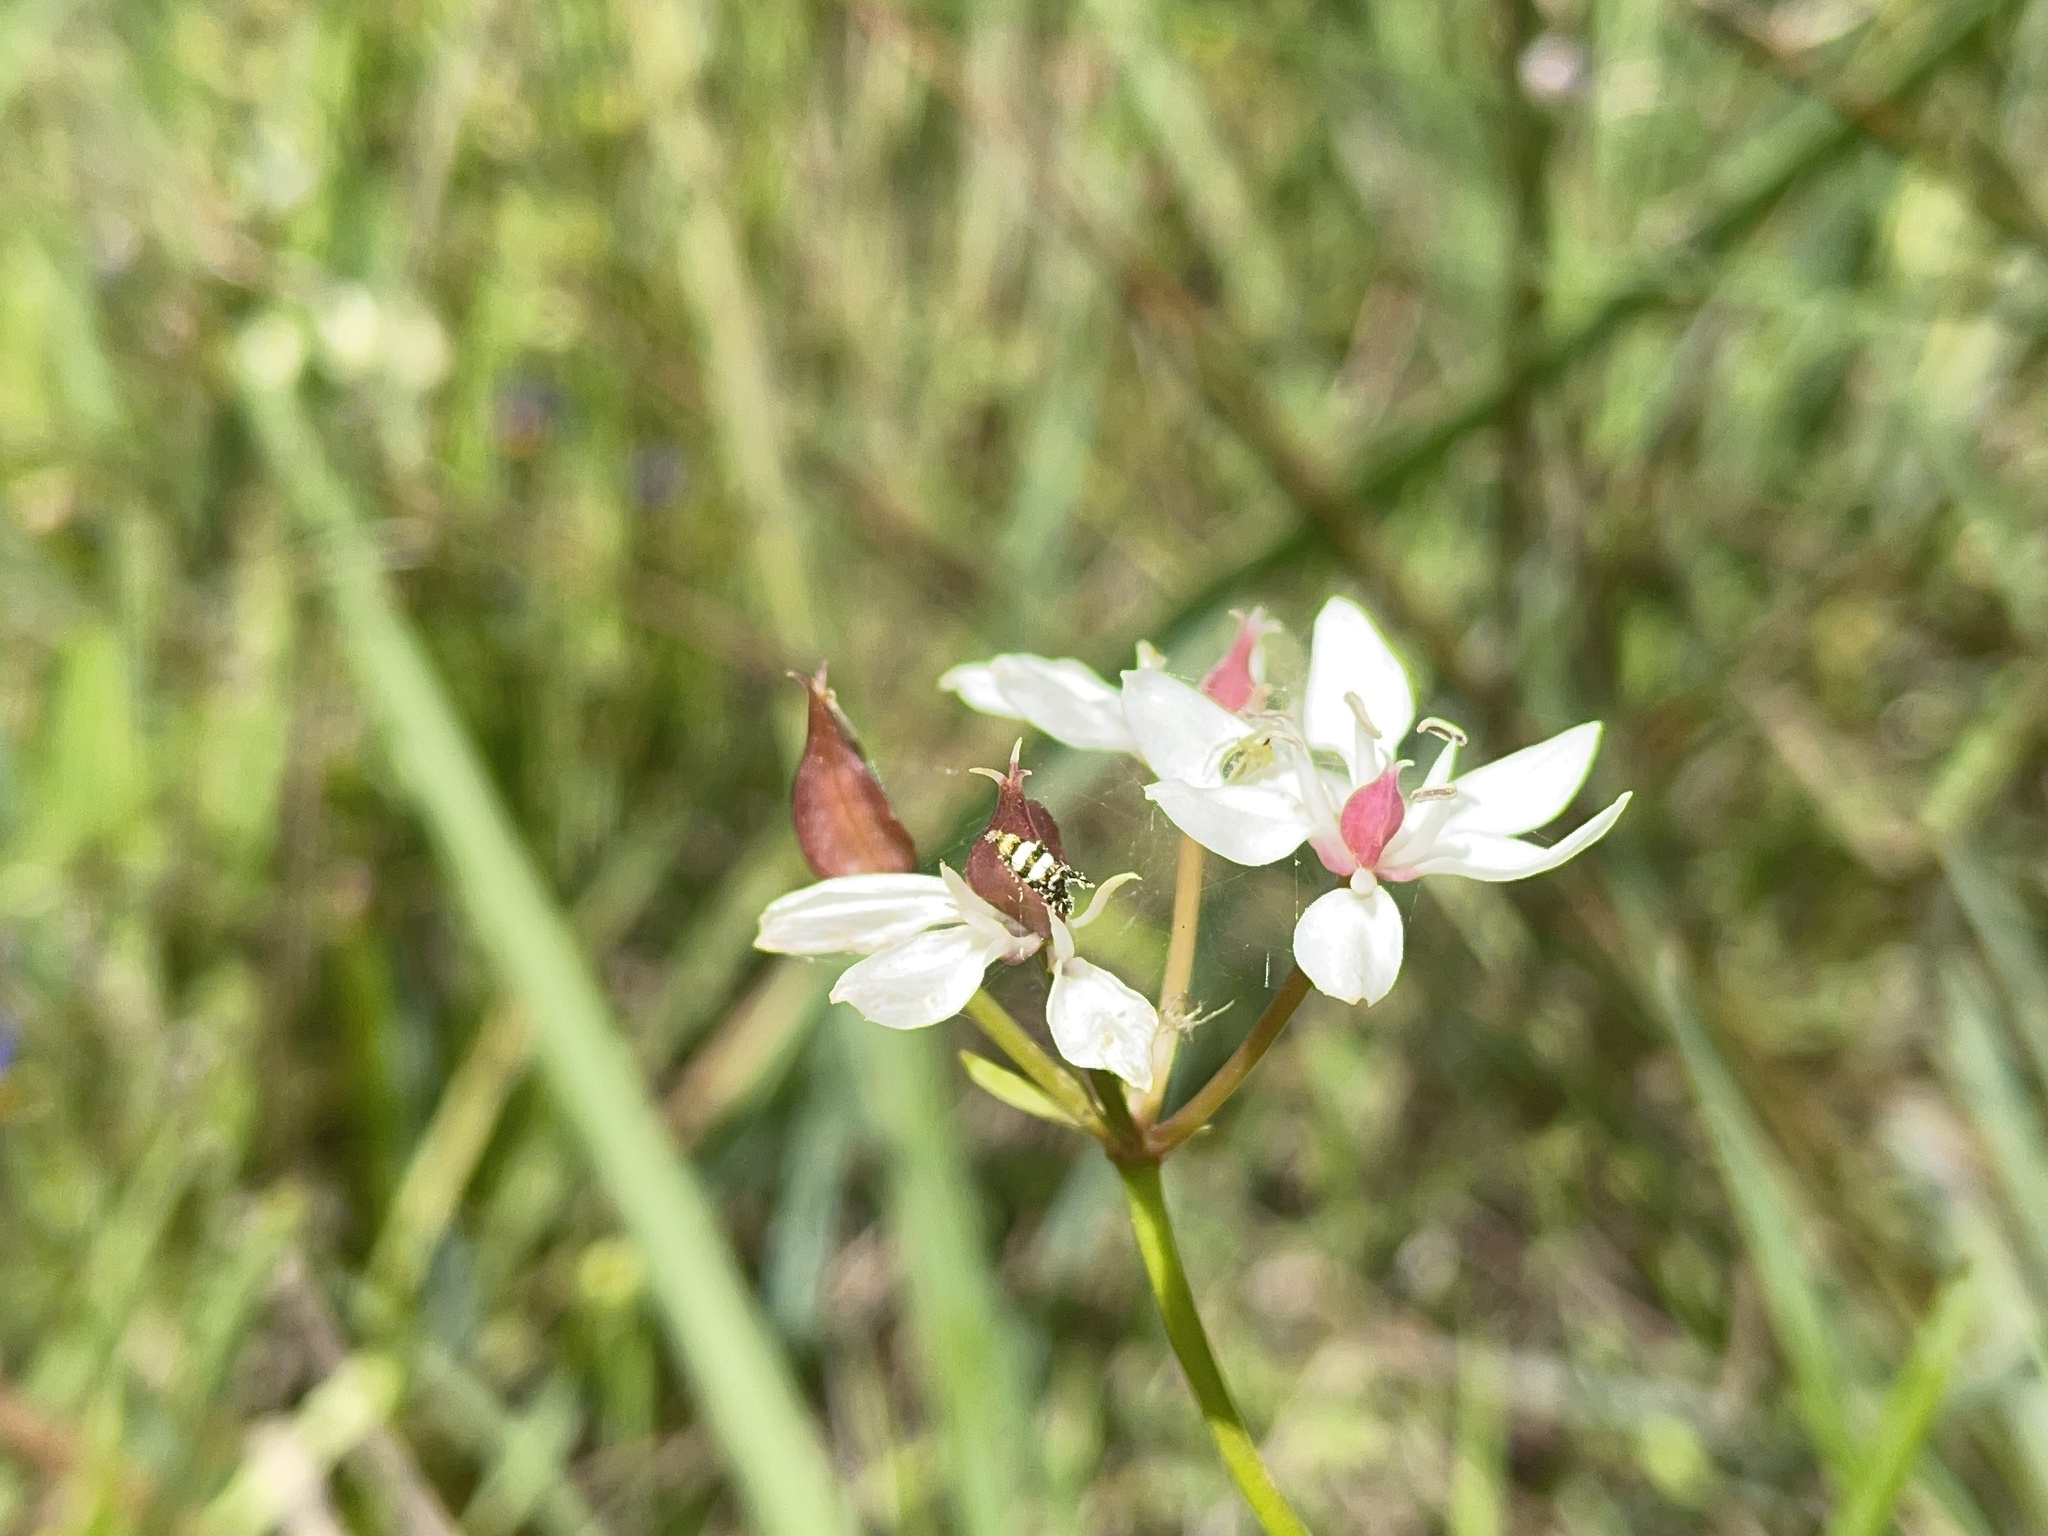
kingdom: Plantae
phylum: Tracheophyta
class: Liliopsida
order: Liliales
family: Colchicaceae
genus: Burchardia
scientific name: Burchardia umbellata
